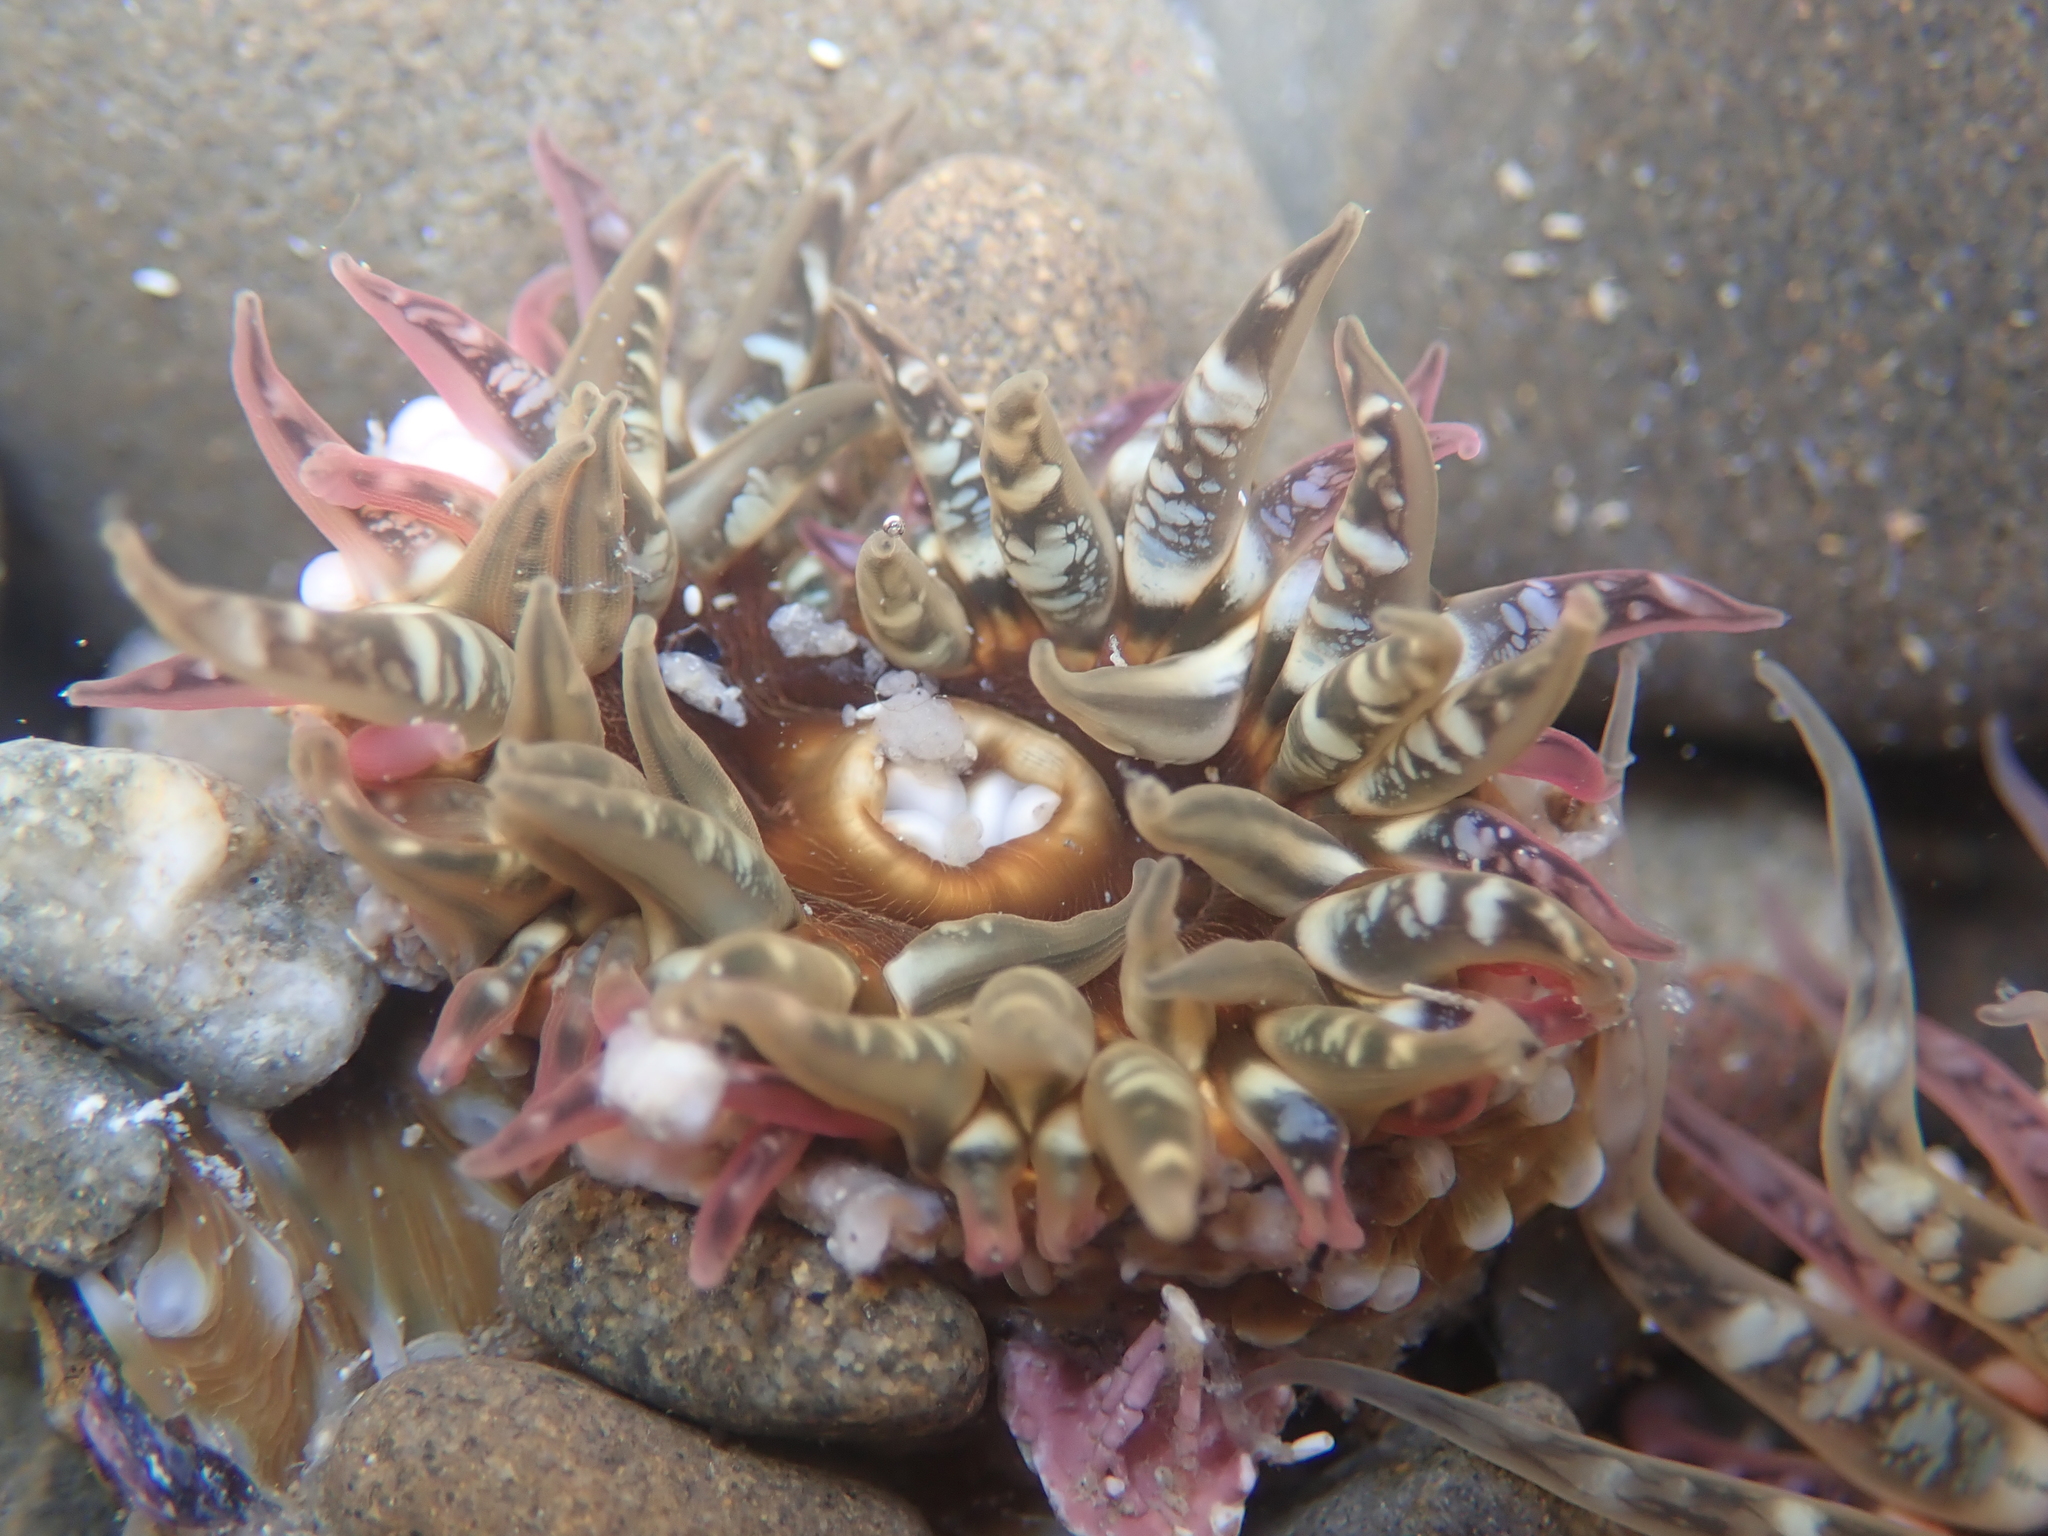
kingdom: Animalia
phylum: Cnidaria
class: Anthozoa
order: Actiniaria
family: Actiniidae
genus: Oulactis
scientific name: Oulactis muscosa
